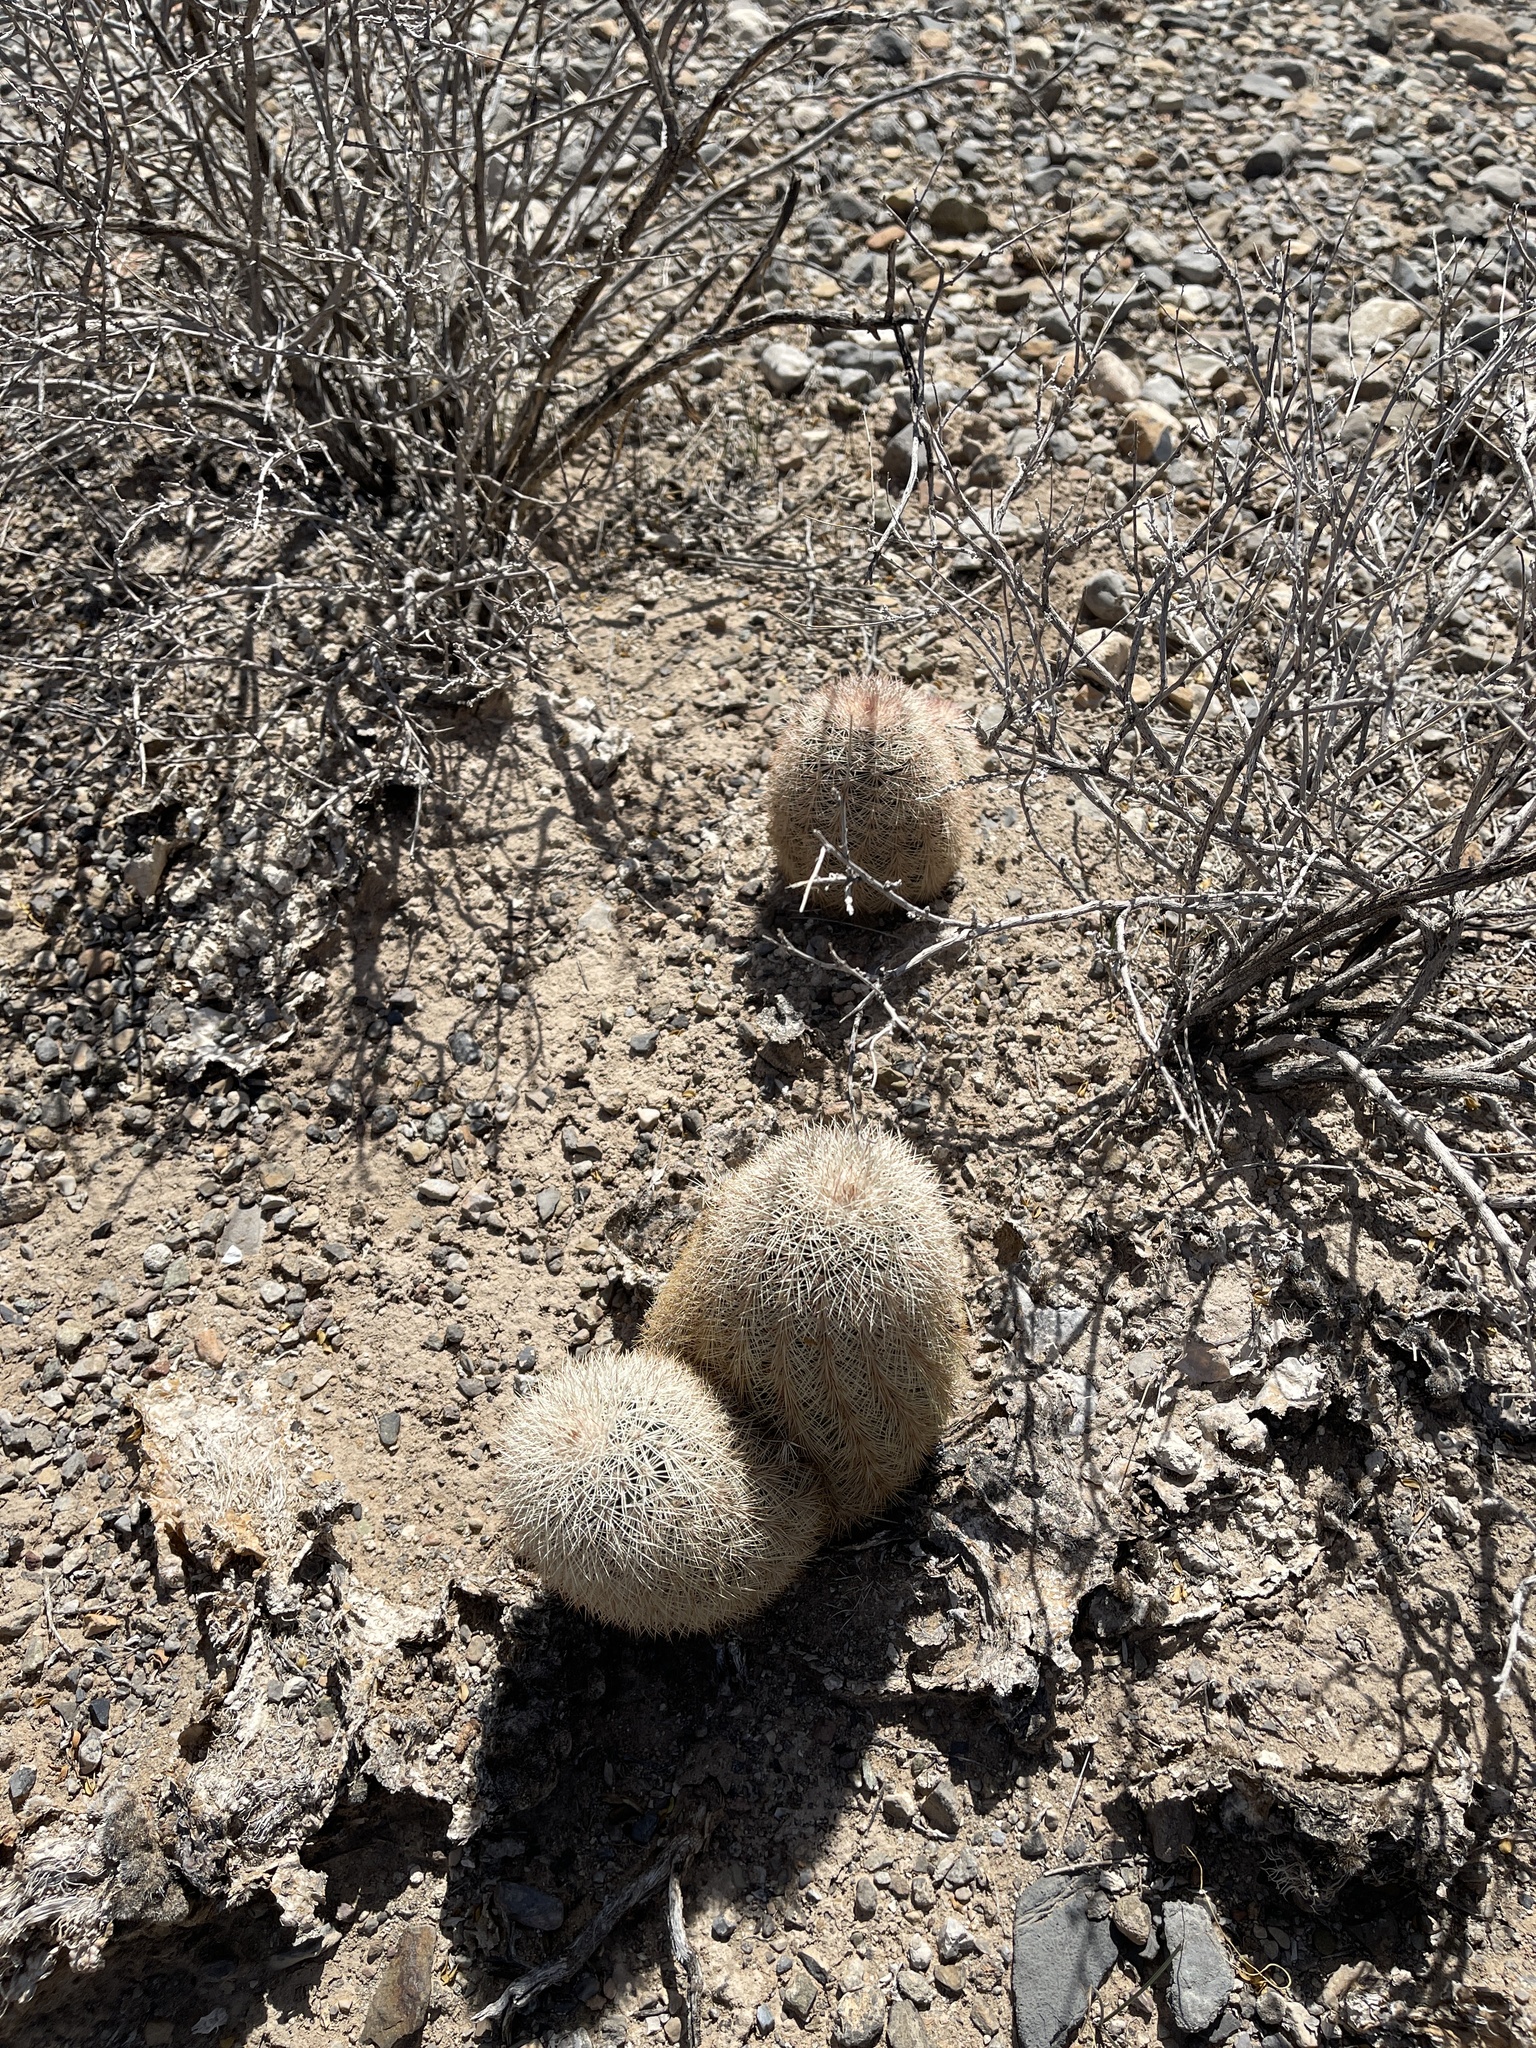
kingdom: Plantae
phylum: Tracheophyta
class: Magnoliopsida
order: Caryophyllales
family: Cactaceae
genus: Echinocereus
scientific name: Echinocereus dasyacanthus
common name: Spiny hedgehog cactus
